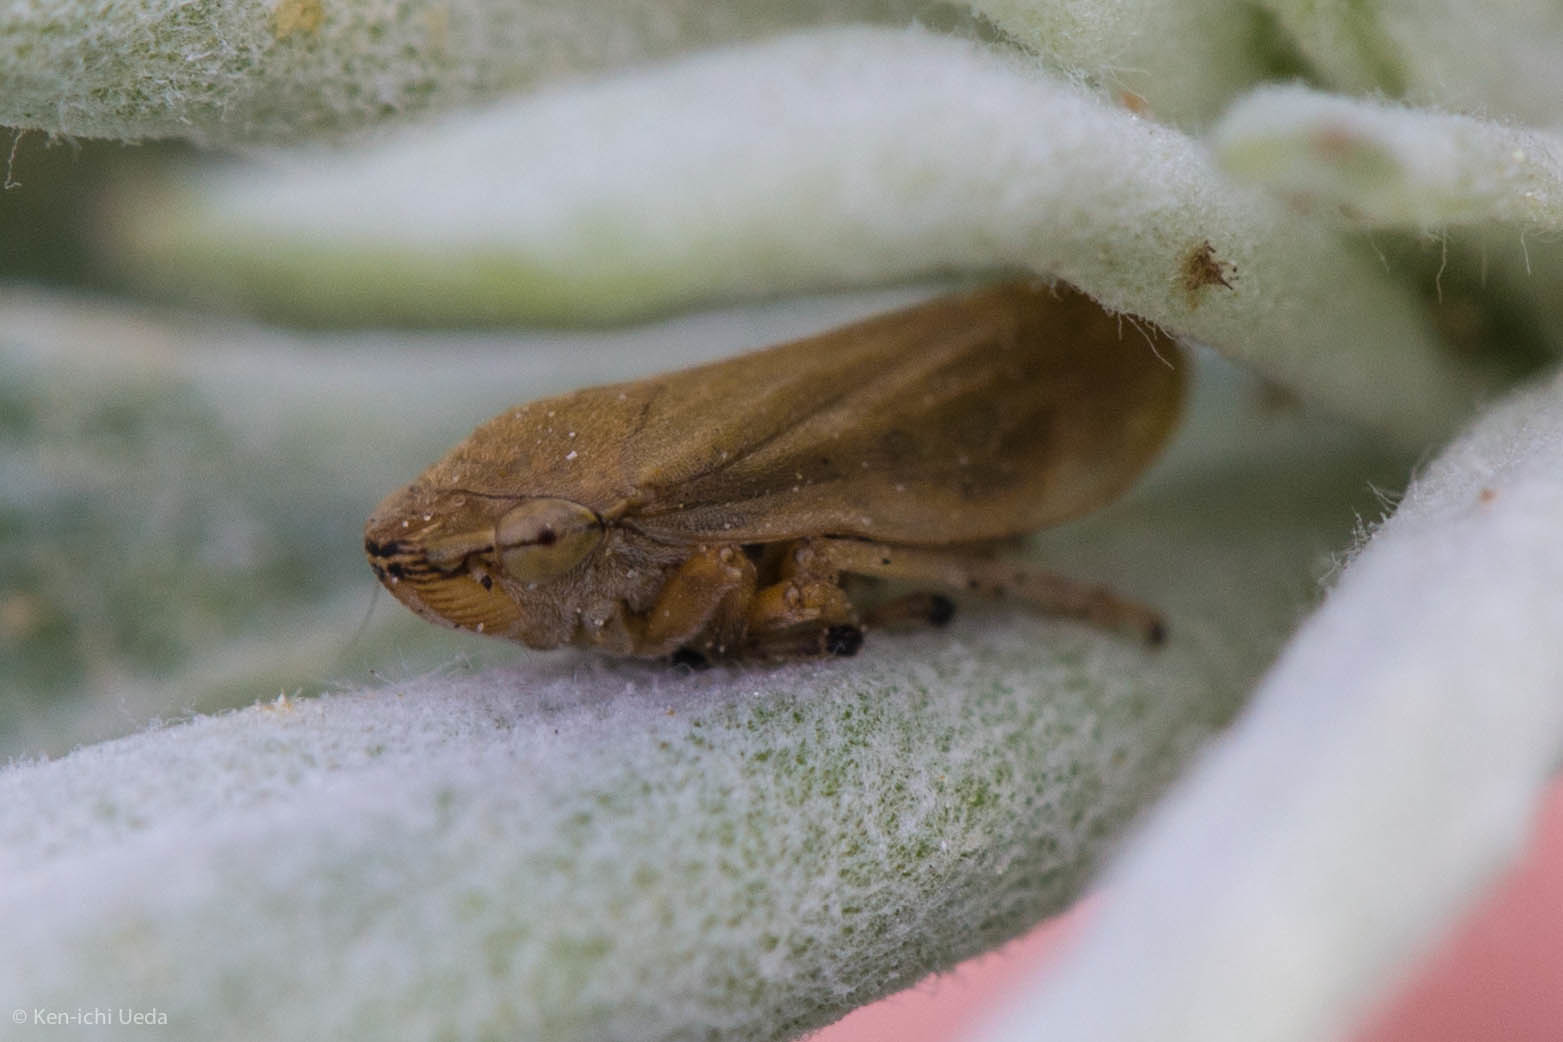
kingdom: Animalia
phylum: Arthropoda
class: Insecta
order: Hemiptera
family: Aphrophoridae
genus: Philaenus
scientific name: Philaenus spumarius
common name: Meadow spittlebug
